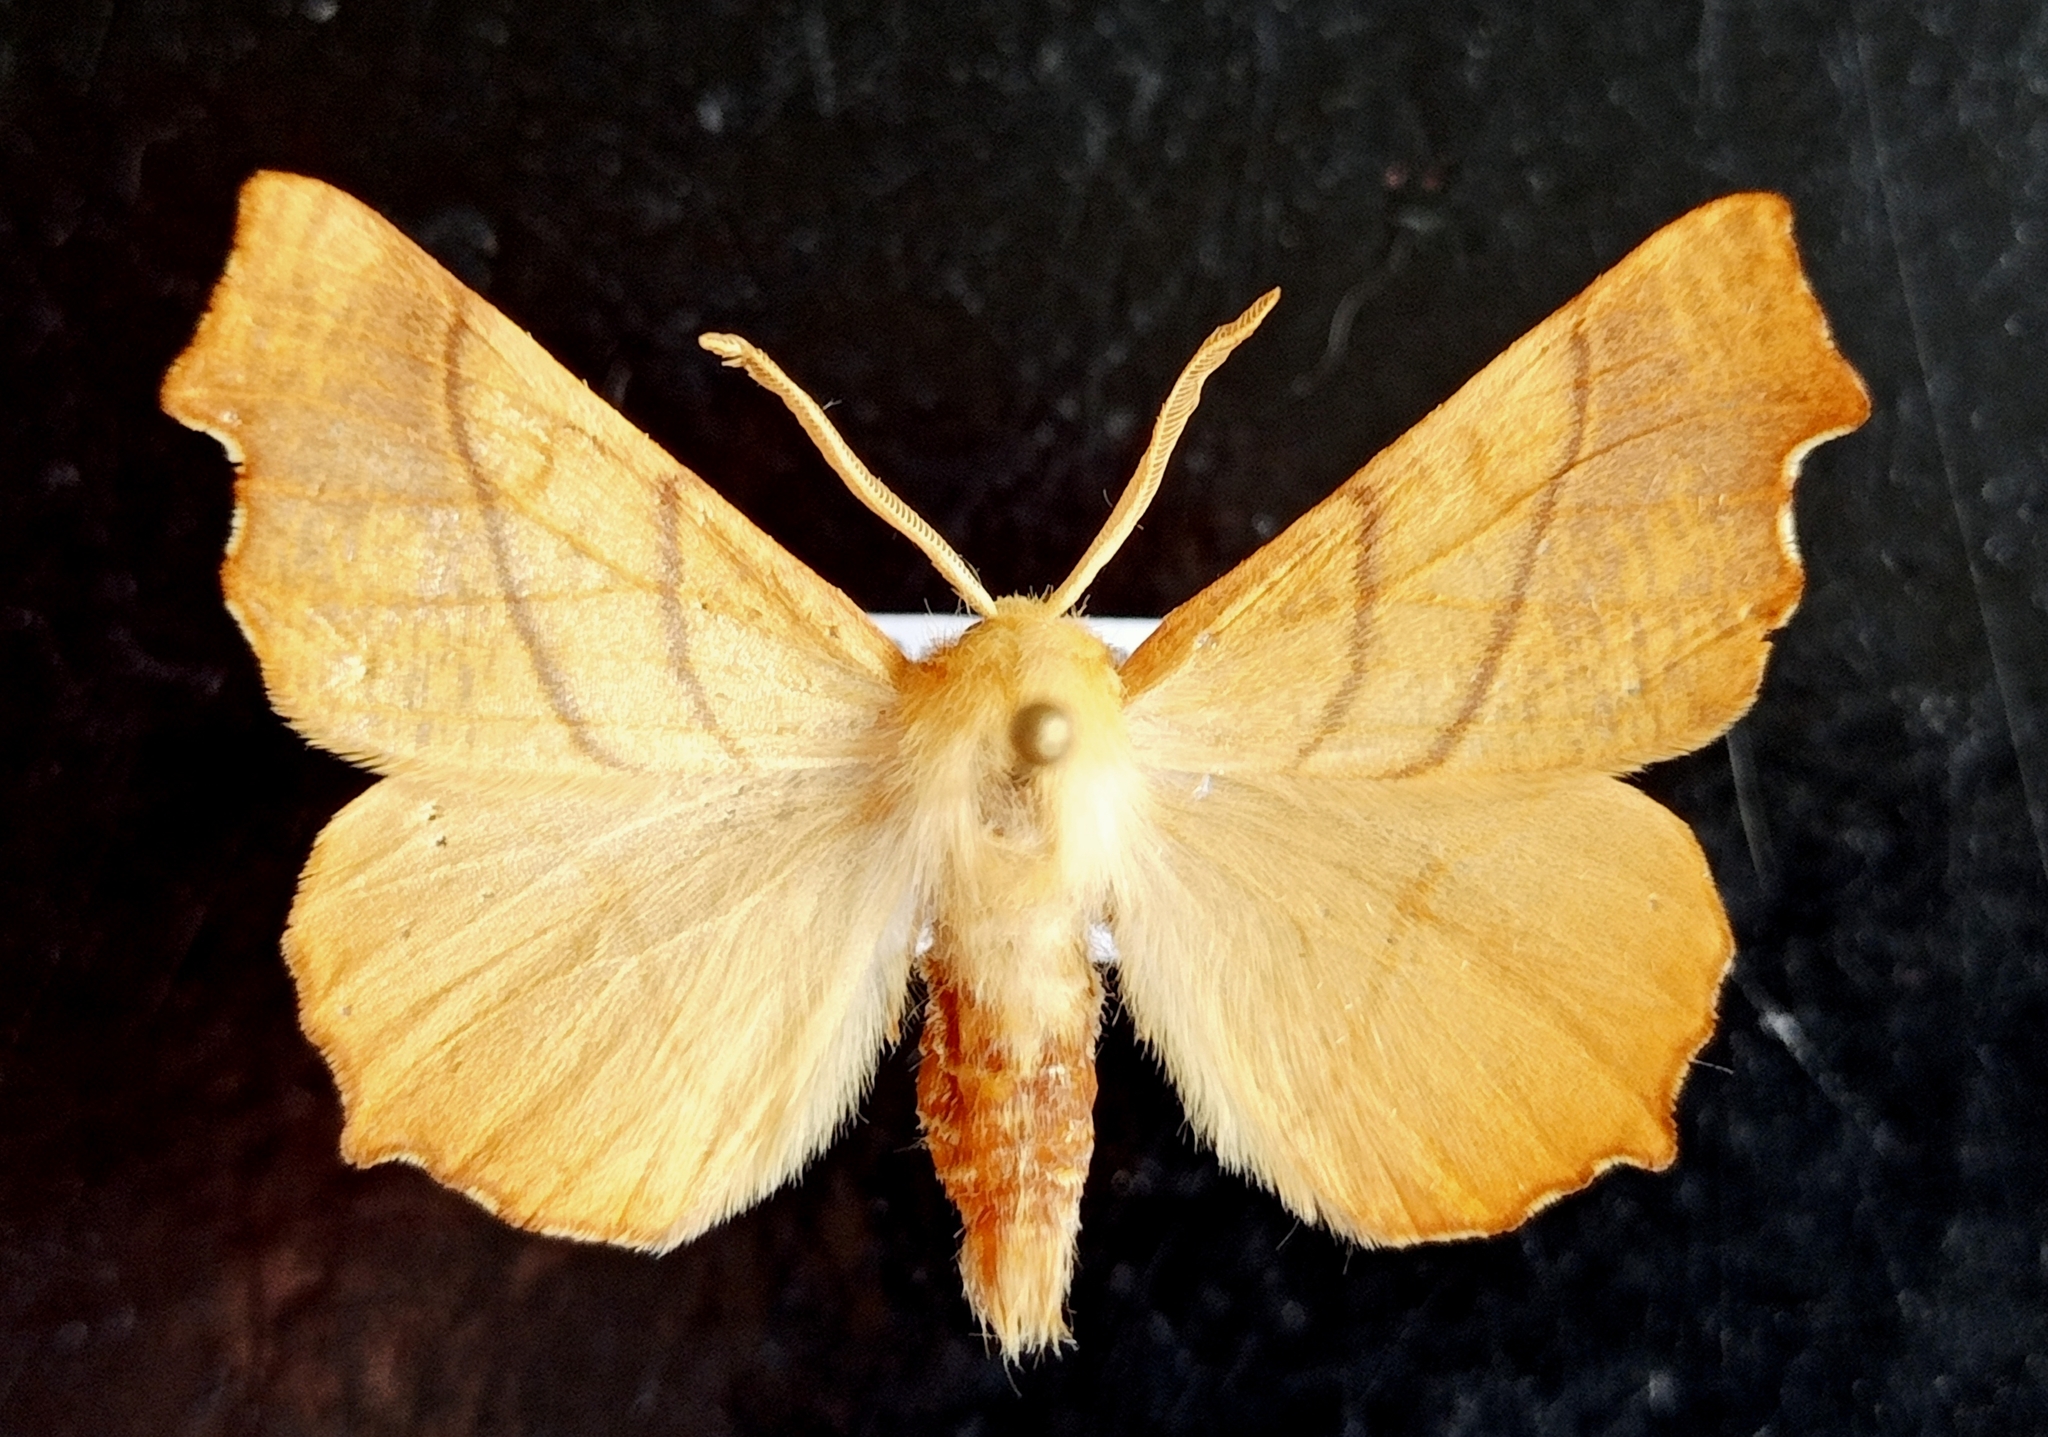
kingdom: Animalia
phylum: Arthropoda
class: Insecta
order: Lepidoptera
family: Geometridae
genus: Ennomos
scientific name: Ennomos fuscantaria
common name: Dusky thorn
